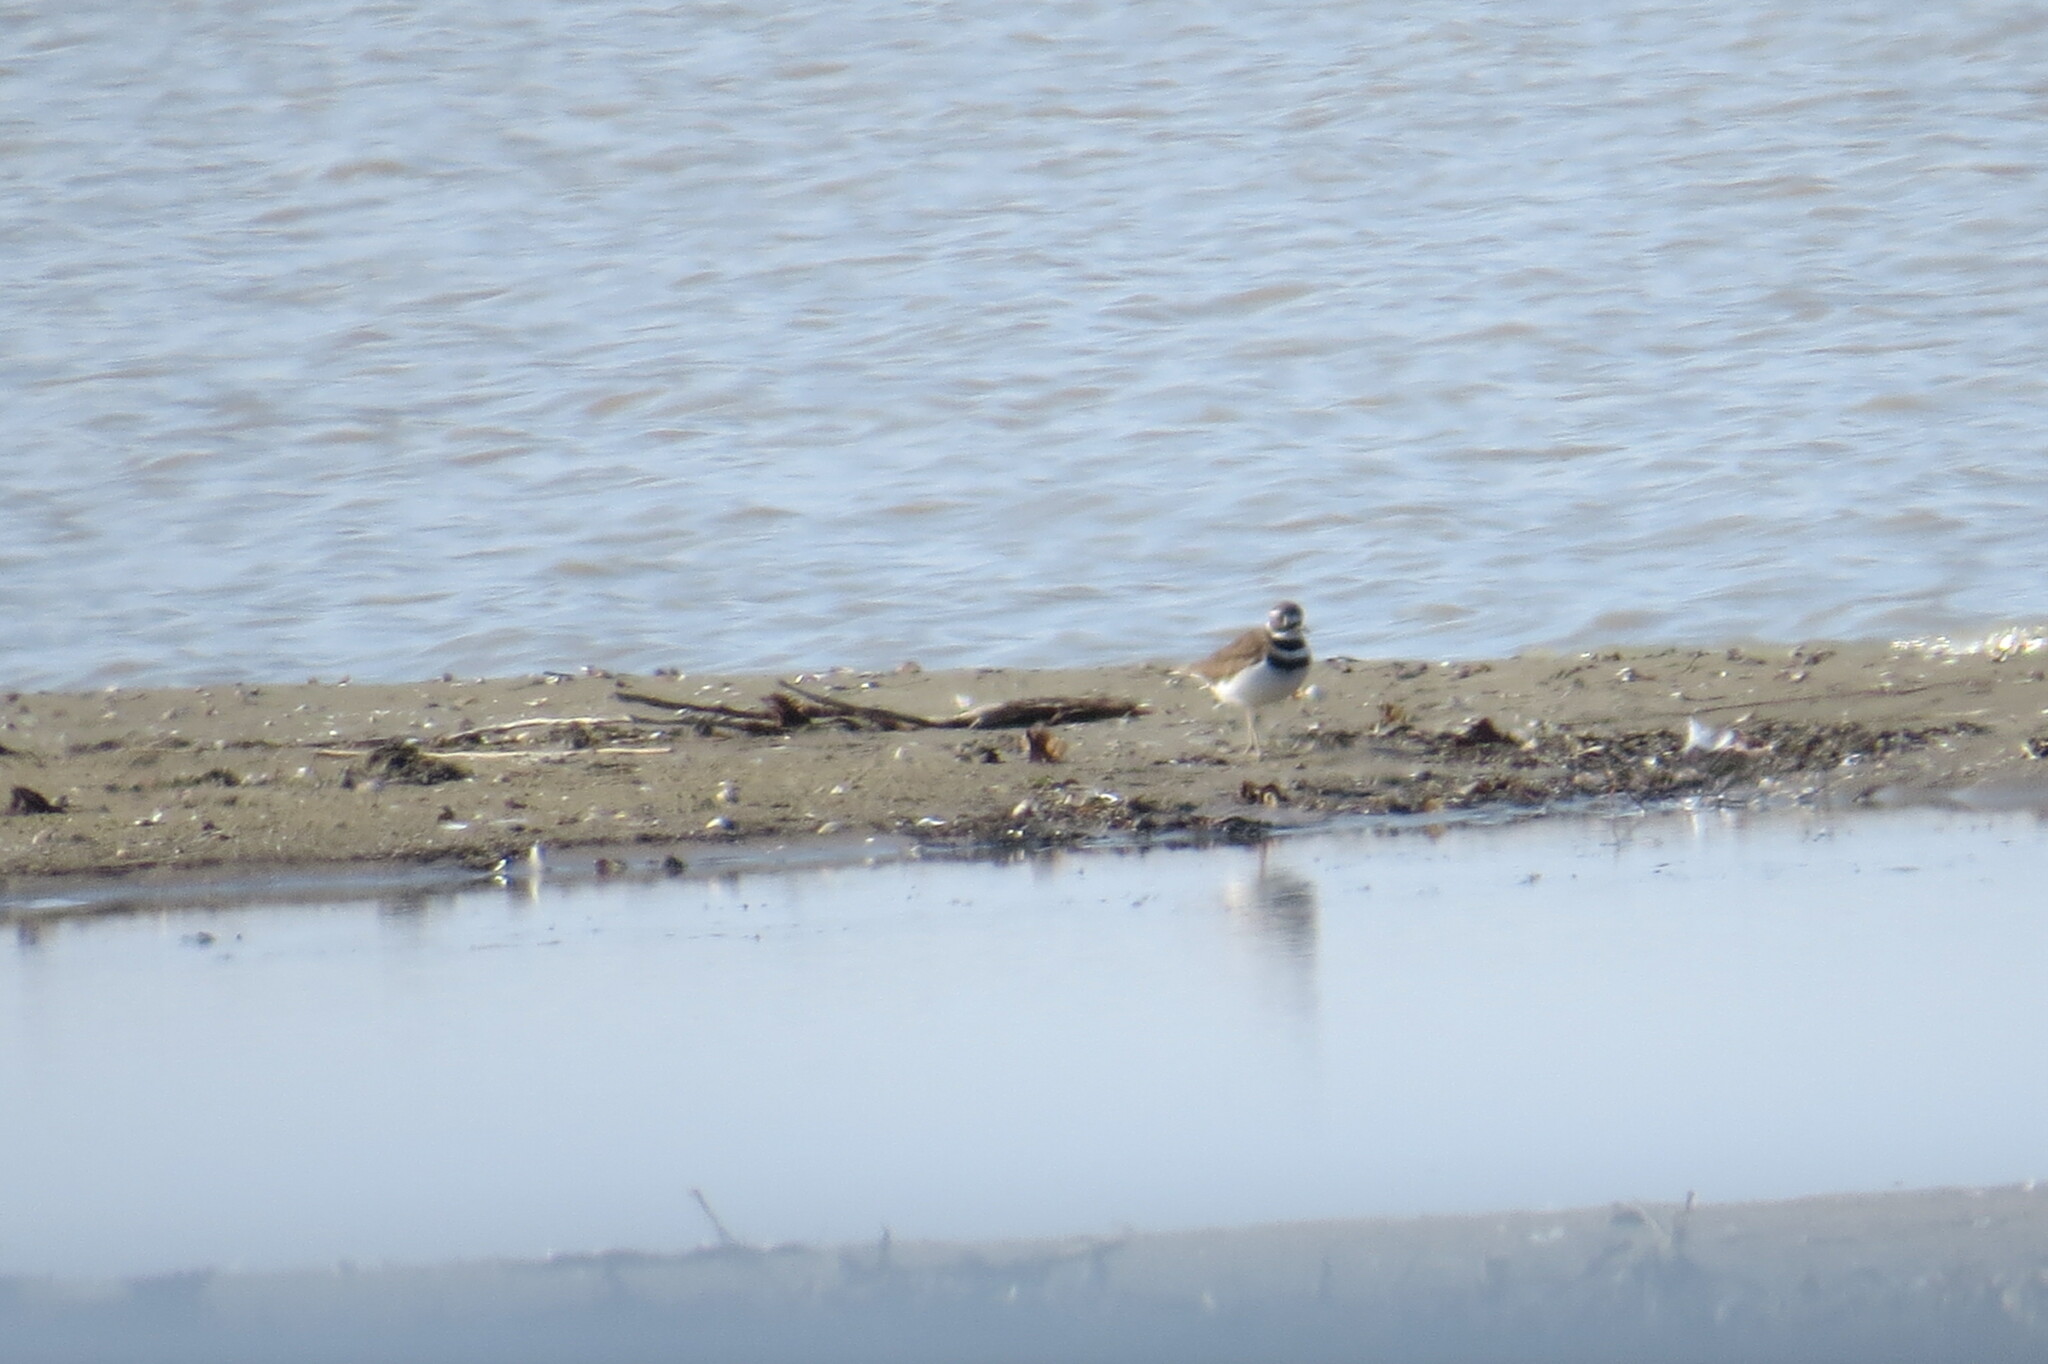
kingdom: Animalia
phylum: Chordata
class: Aves
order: Charadriiformes
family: Charadriidae
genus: Charadrius
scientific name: Charadrius vociferus
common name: Killdeer
